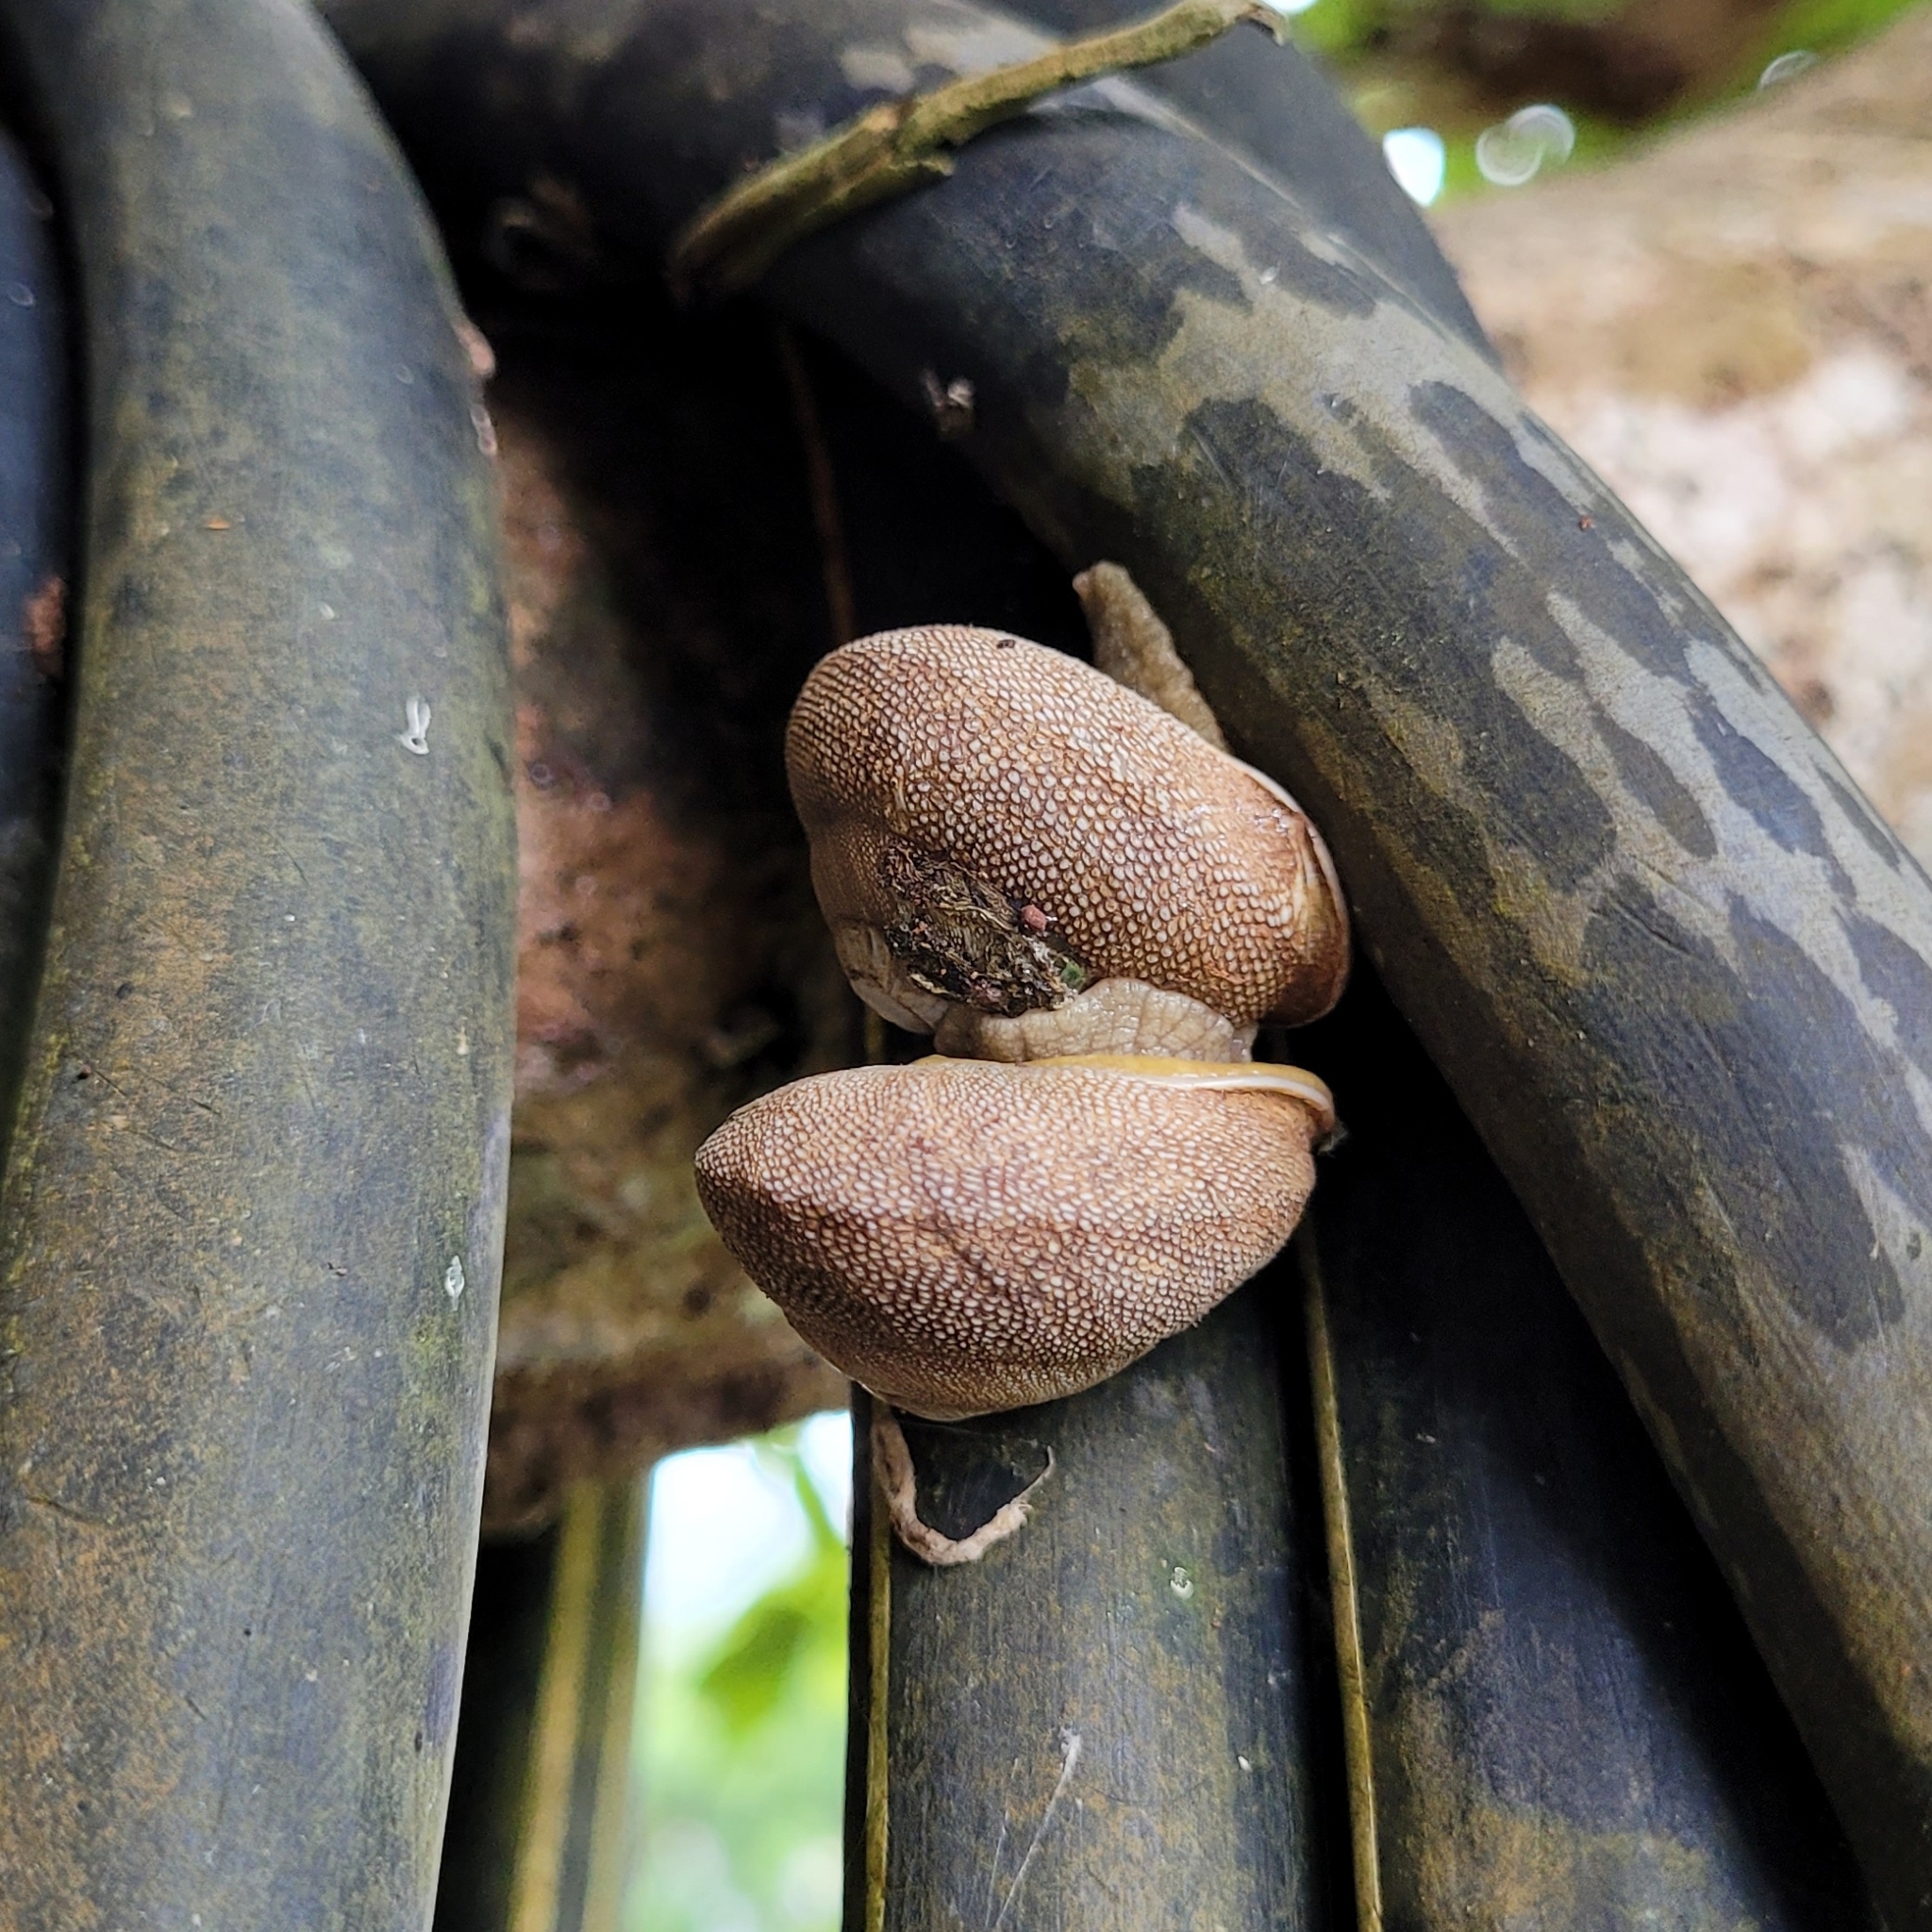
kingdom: Animalia
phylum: Mollusca
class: Gastropoda
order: Stylommatophora
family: Sagdidae
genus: Granodomus
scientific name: Granodomus lima
